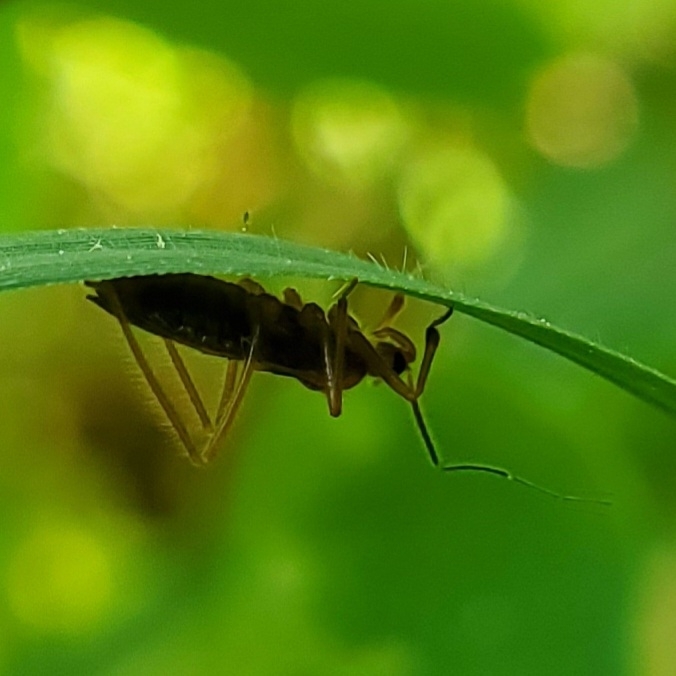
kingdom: Animalia
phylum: Arthropoda
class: Insecta
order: Hemiptera
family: Reduviidae
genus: Oncerotrachelus
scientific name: Oncerotrachelus acuminatus
